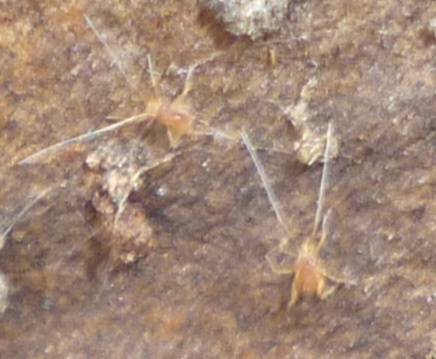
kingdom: Animalia
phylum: Arthropoda
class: Arachnida
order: Trombidiformes
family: Eupodidae
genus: Linopodes
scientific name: Linopodes
